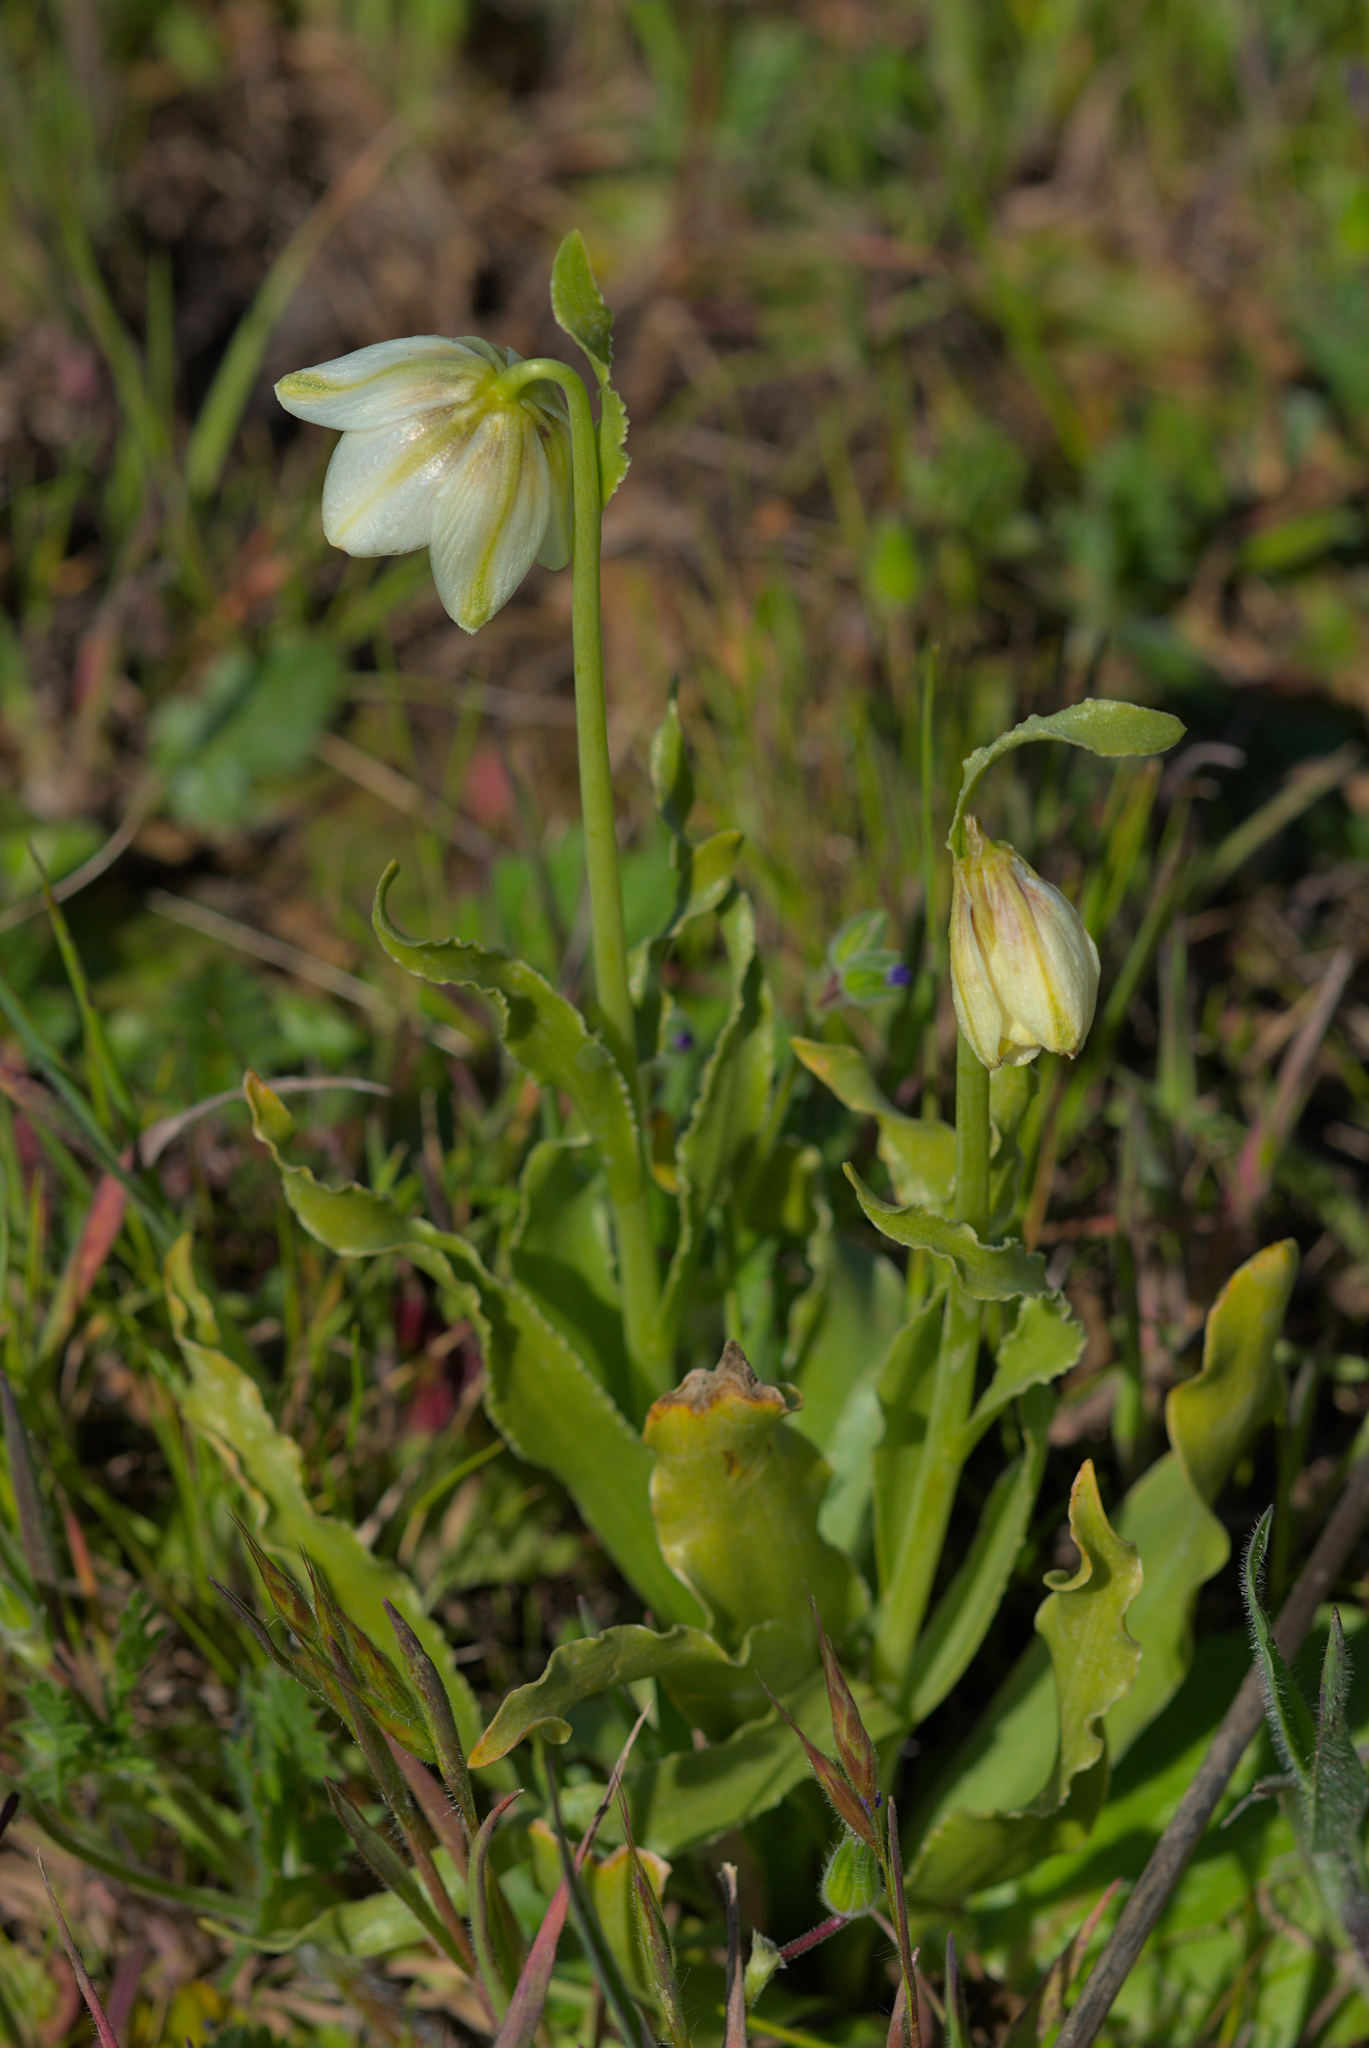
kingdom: Plantae
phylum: Tracheophyta
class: Liliopsida
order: Liliales
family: Liliaceae
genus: Fritillaria
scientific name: Fritillaria liliacea
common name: Fragrant fritillary
